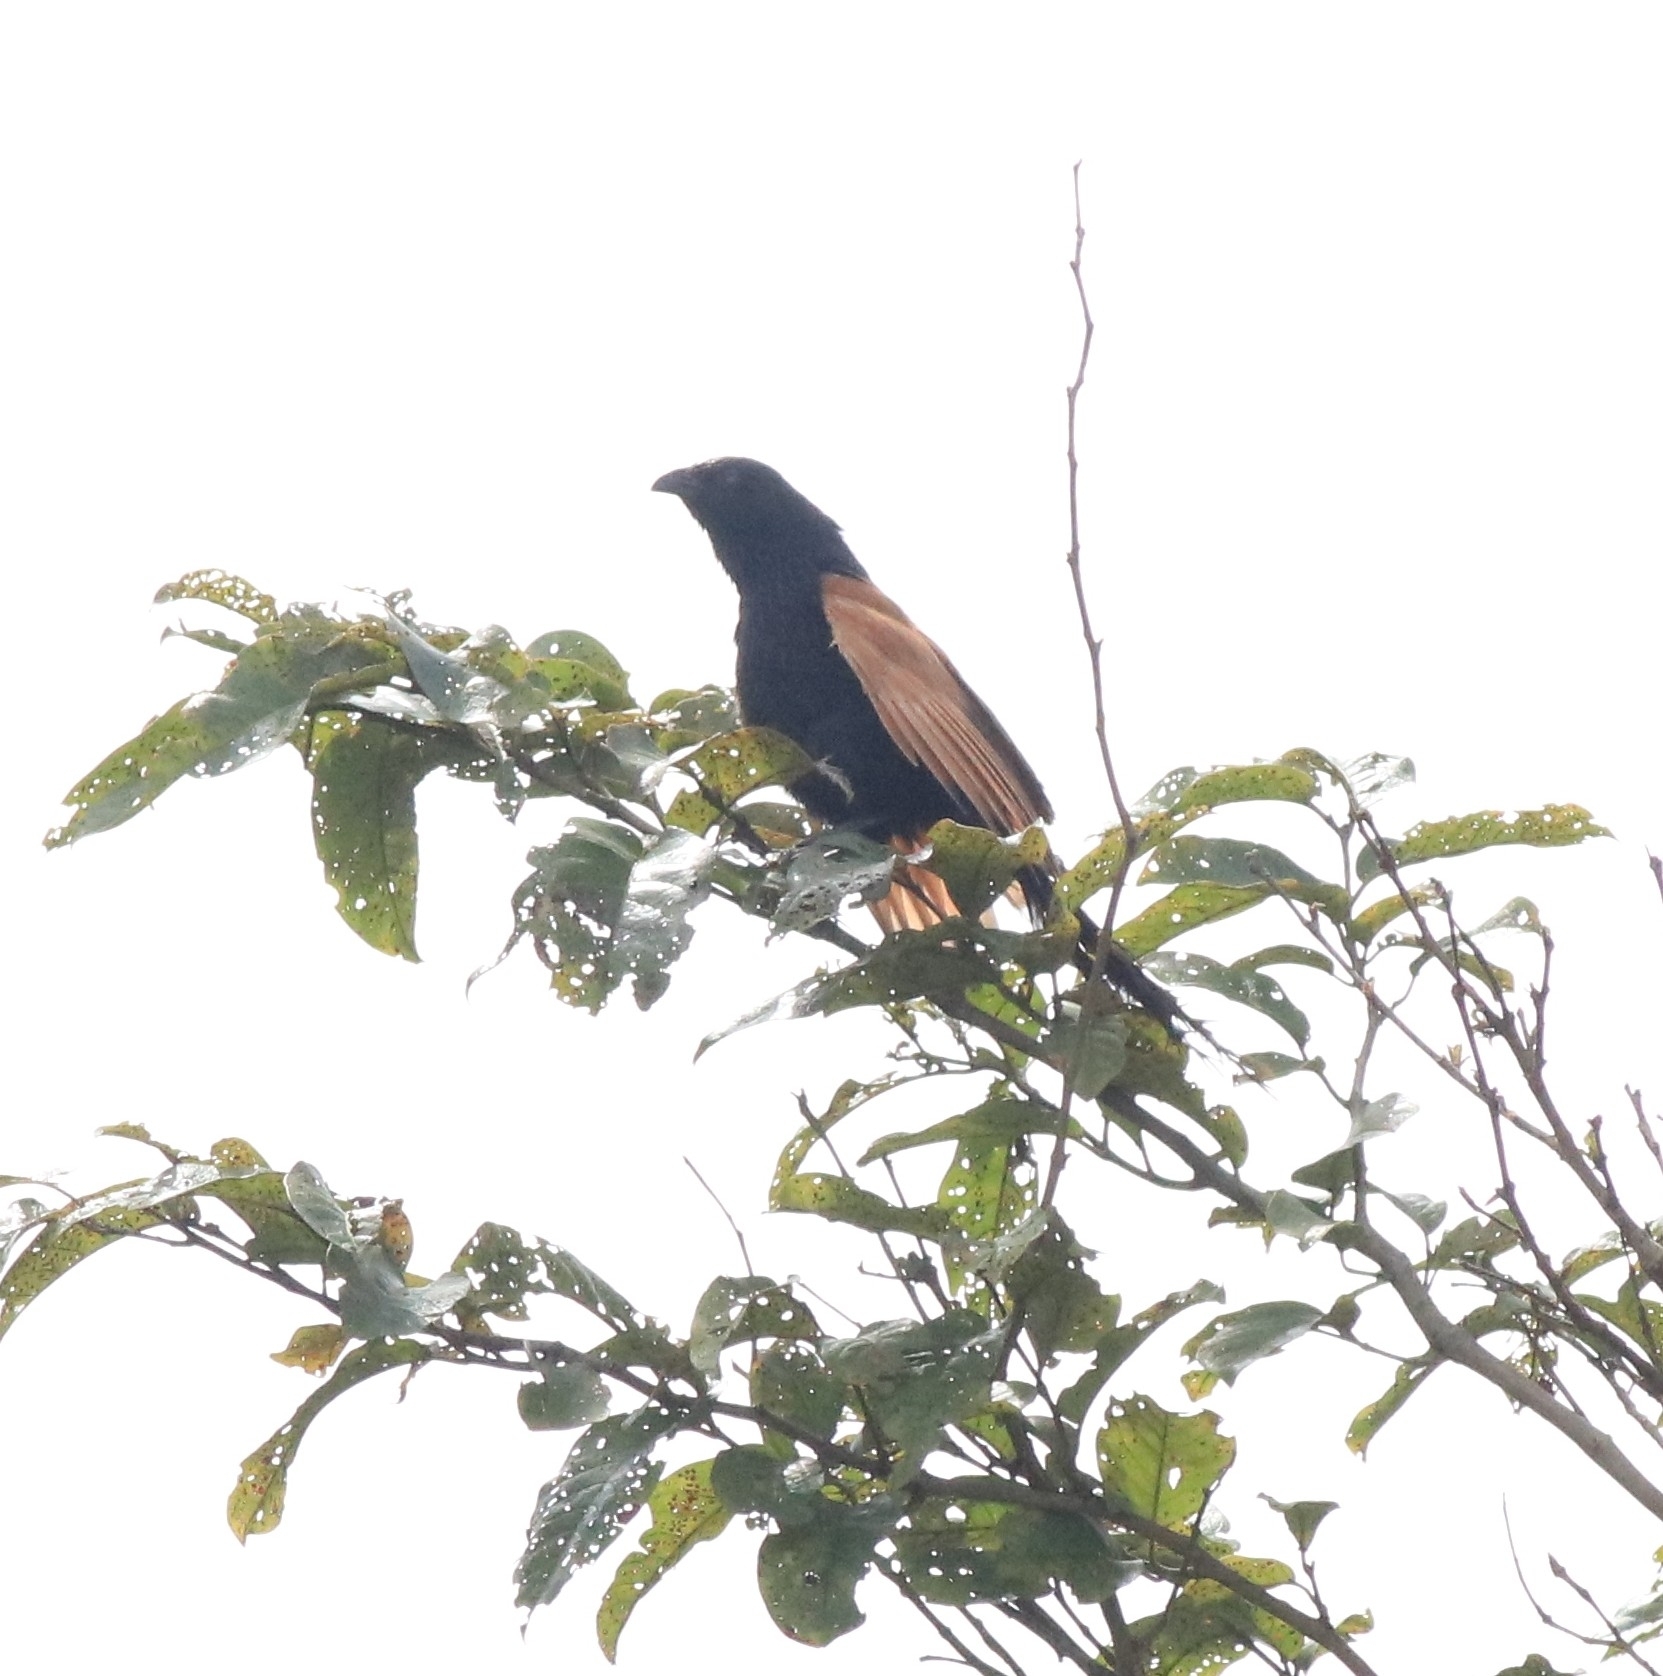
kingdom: Animalia
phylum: Chordata
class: Aves
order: Cuculiformes
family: Cuculidae
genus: Centropus
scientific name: Centropus bengalensis
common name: Lesser coucal
